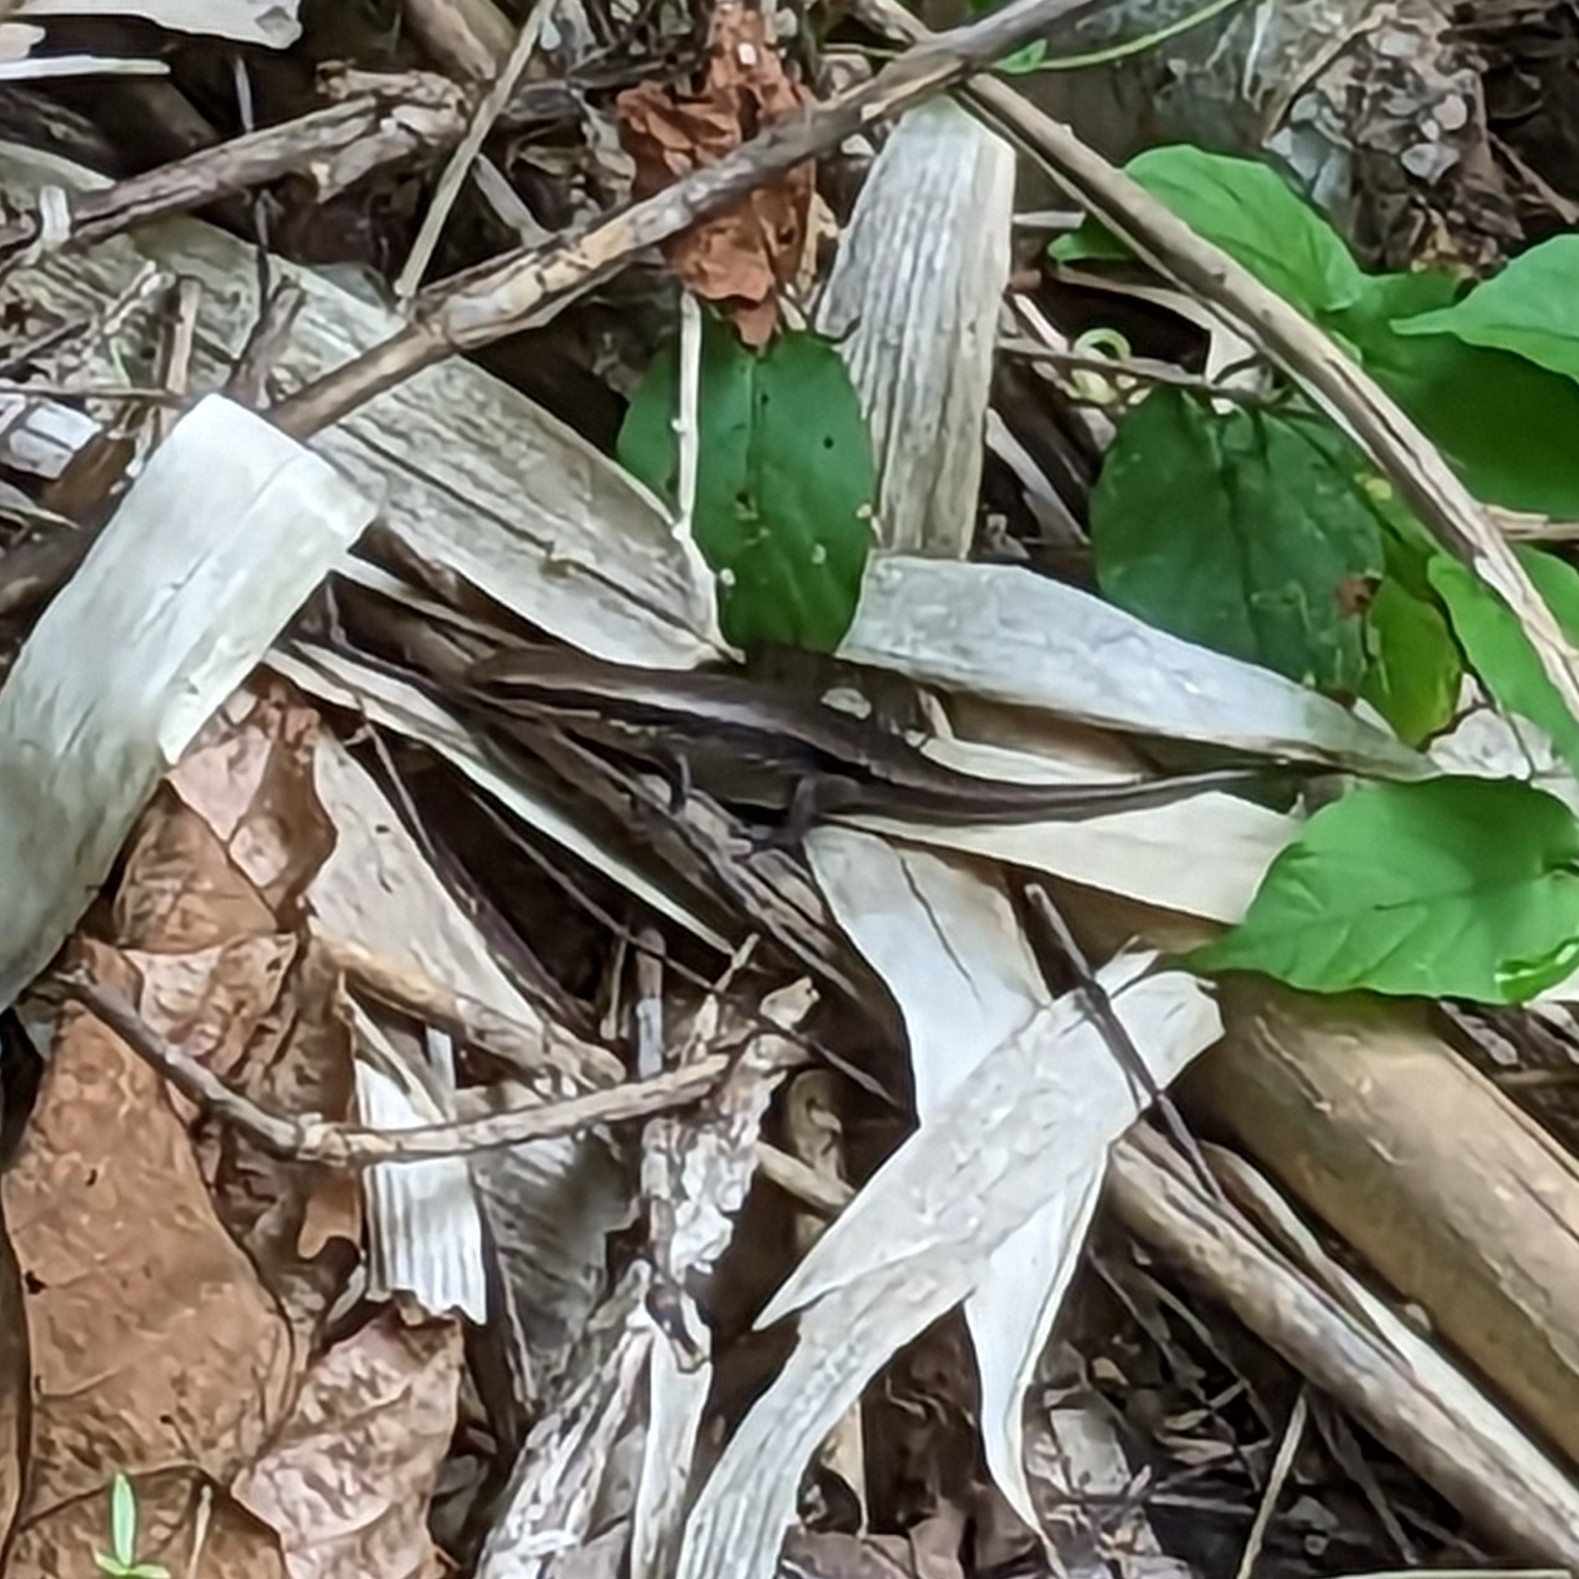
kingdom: Animalia
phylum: Chordata
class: Squamata
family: Scincidae
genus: Eutropis
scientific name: Eutropis carinata
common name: Keeled indian mabuya
